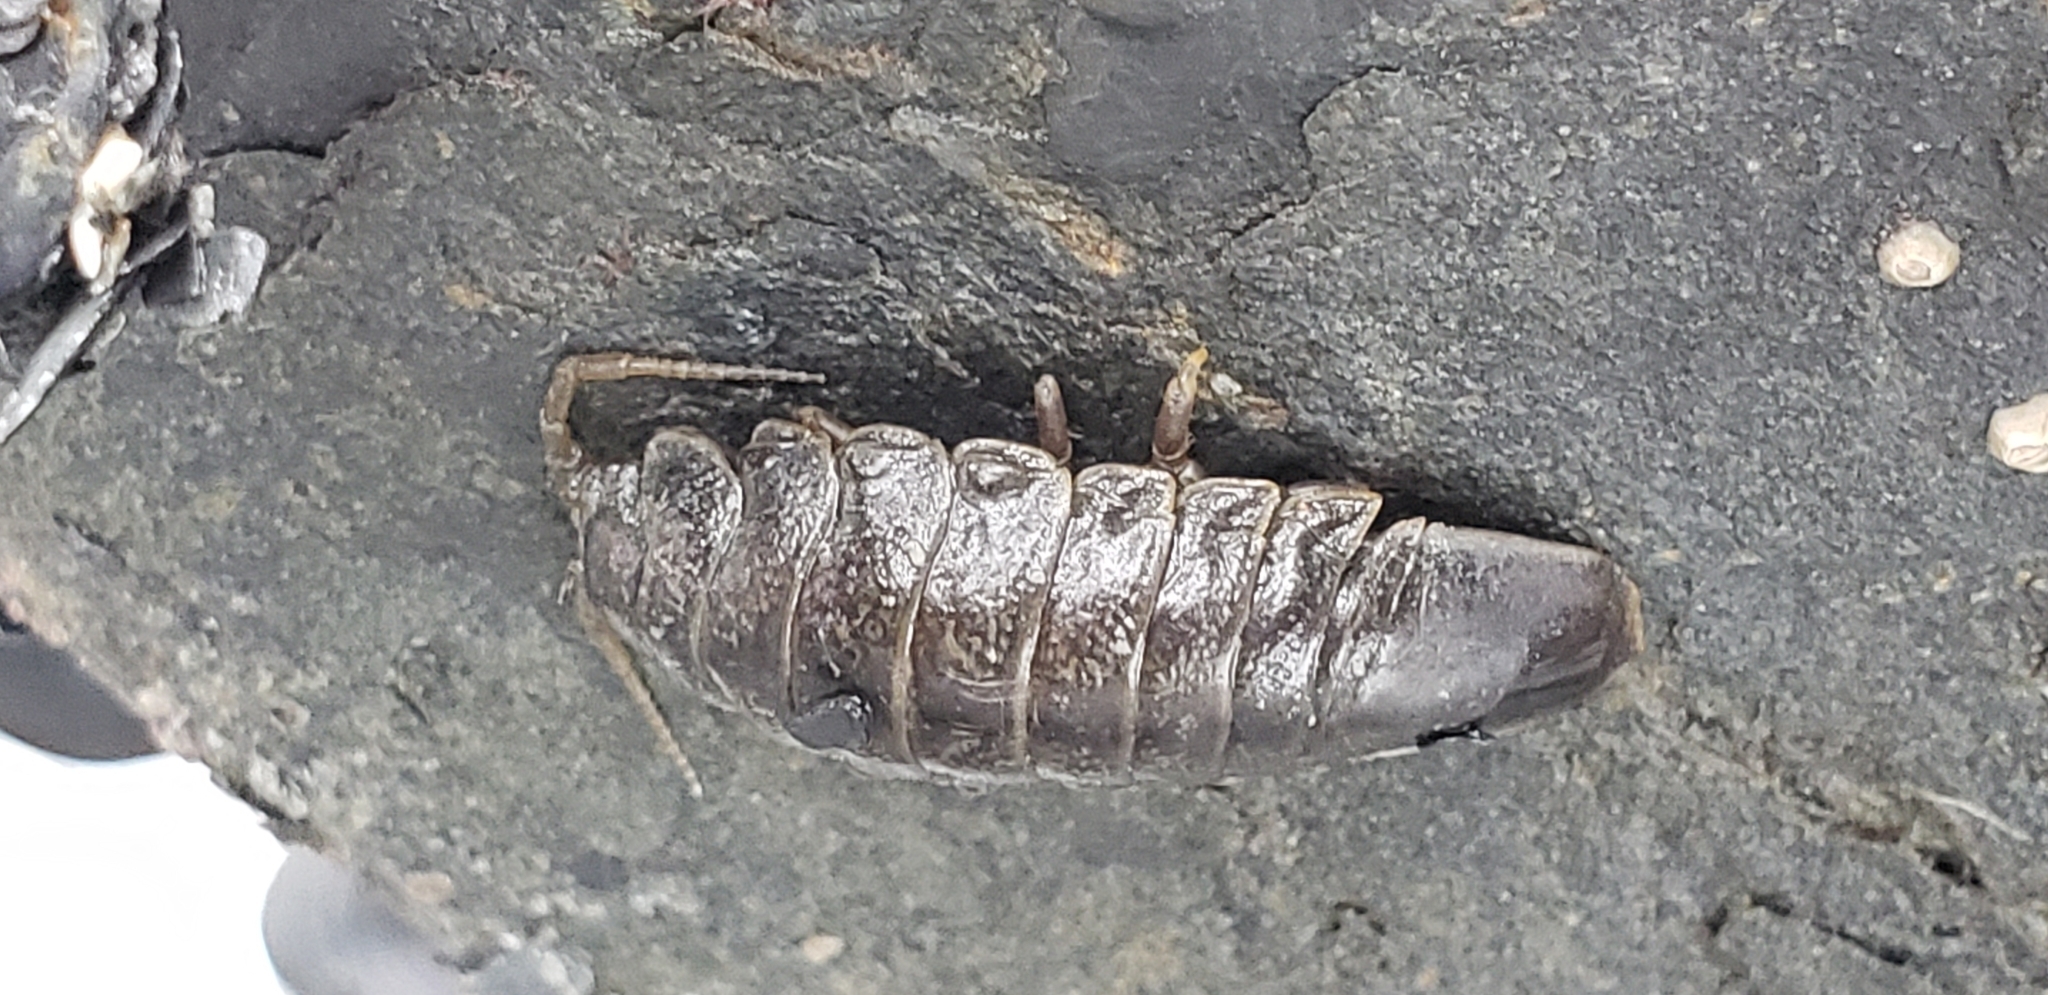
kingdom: Animalia
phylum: Arthropoda
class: Malacostraca
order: Isopoda
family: Idoteidae
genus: Pentidotea
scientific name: Pentidotea wosnesenskii
